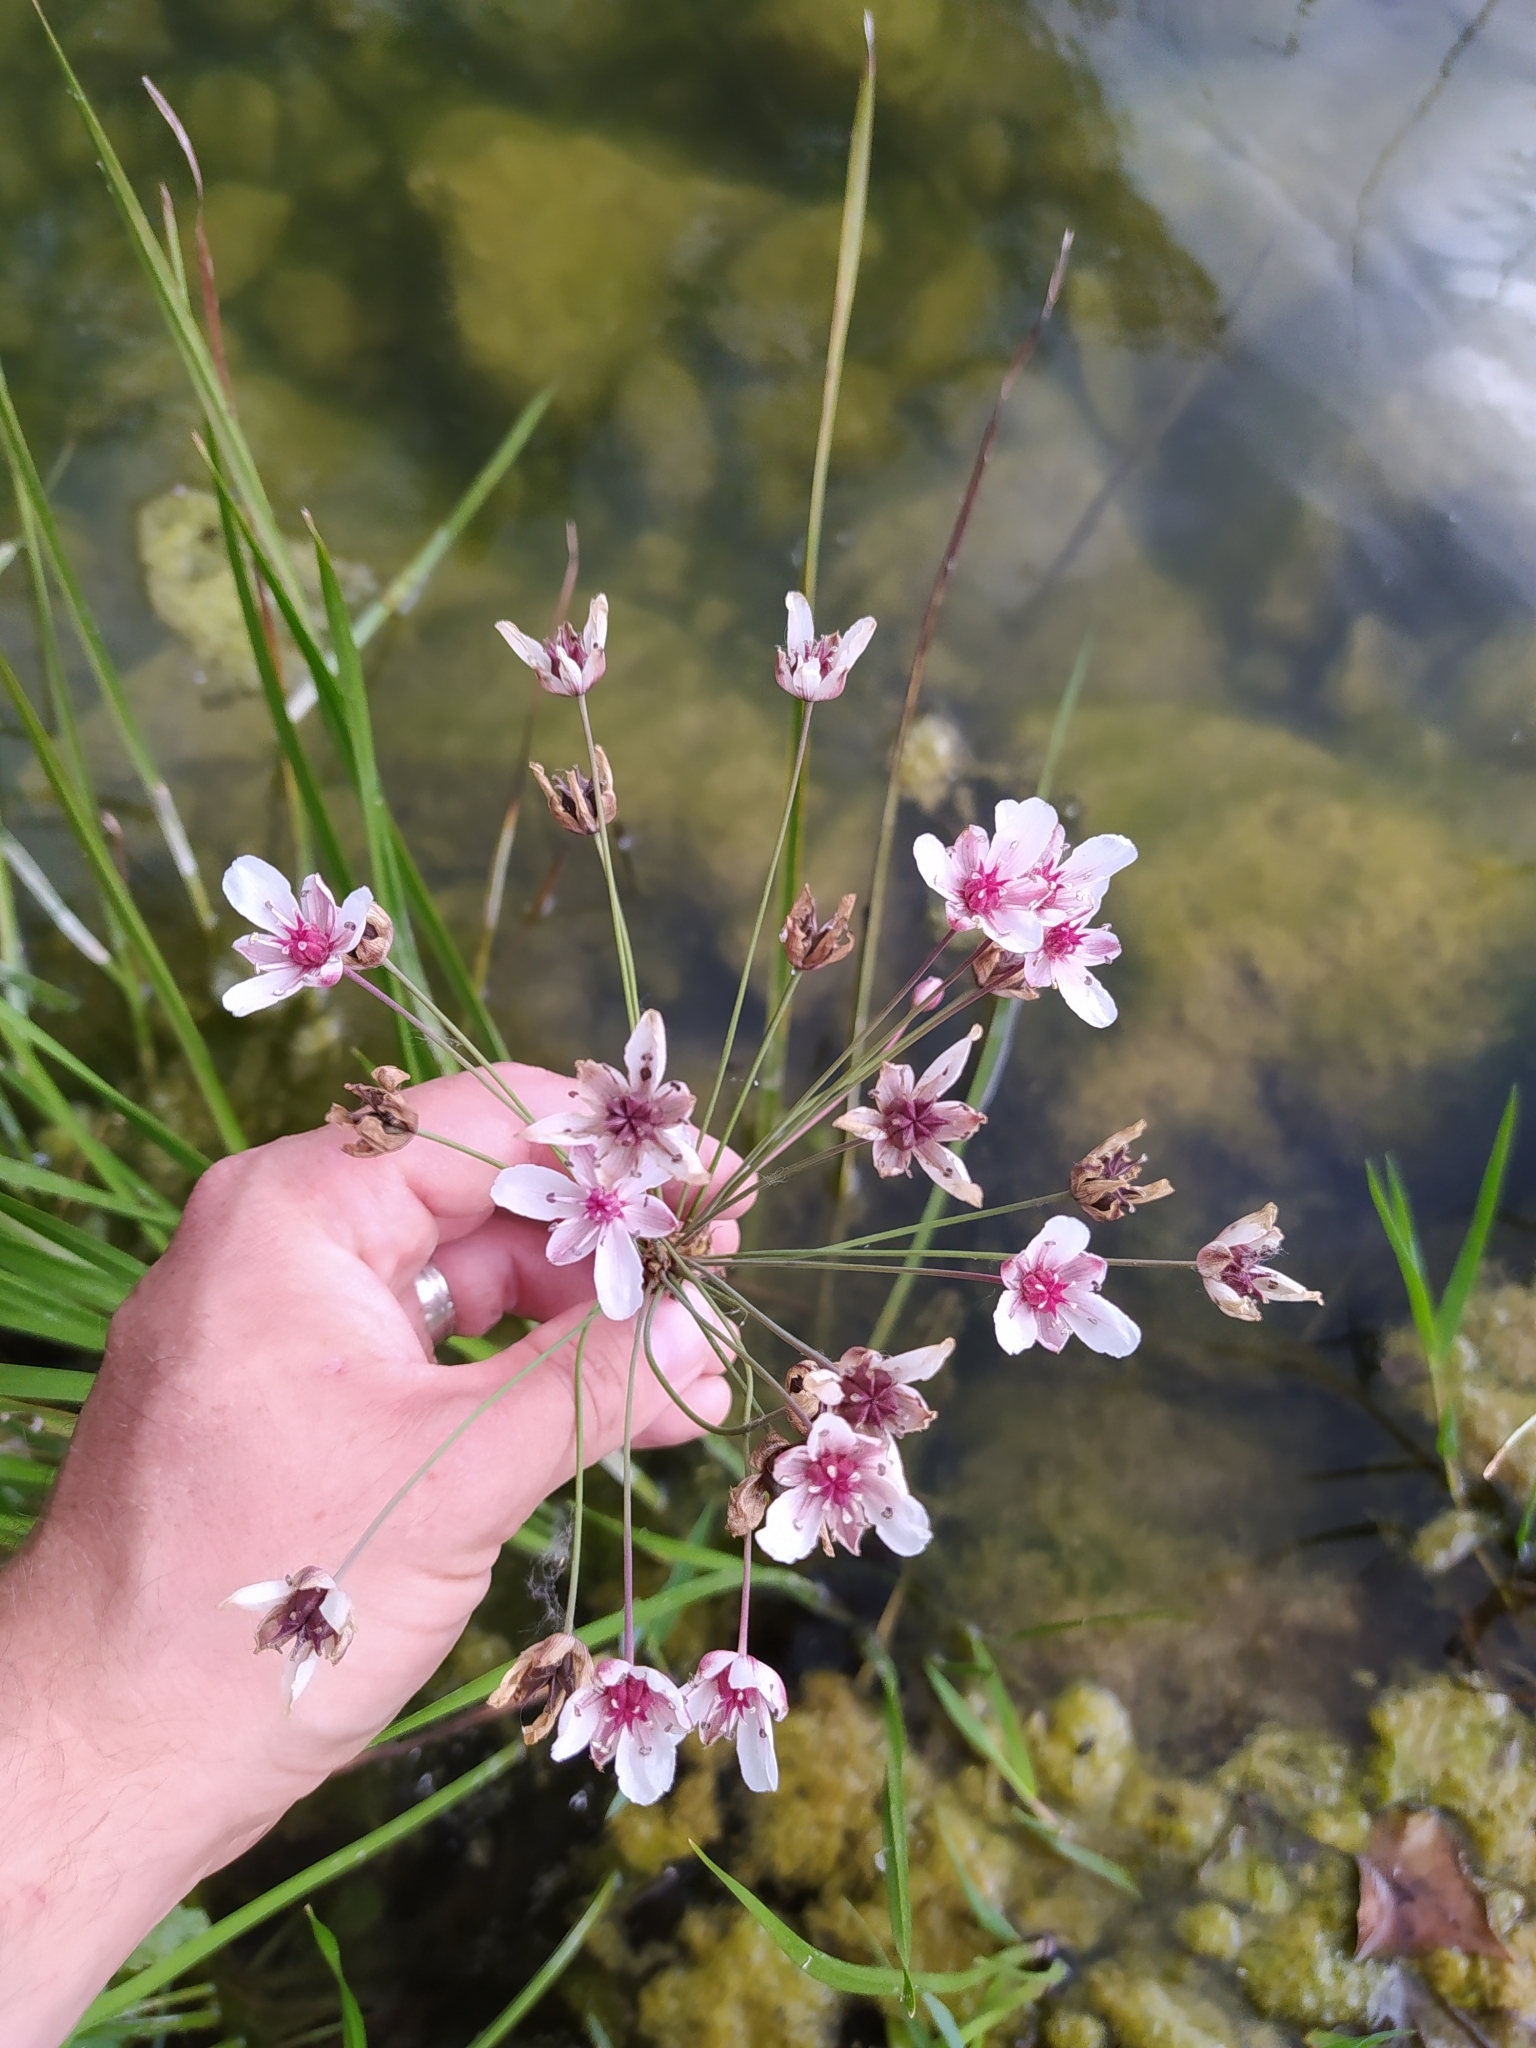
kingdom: Plantae
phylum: Tracheophyta
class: Liliopsida
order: Alismatales
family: Butomaceae
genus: Butomus
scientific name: Butomus umbellatus
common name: Flowering-rush
